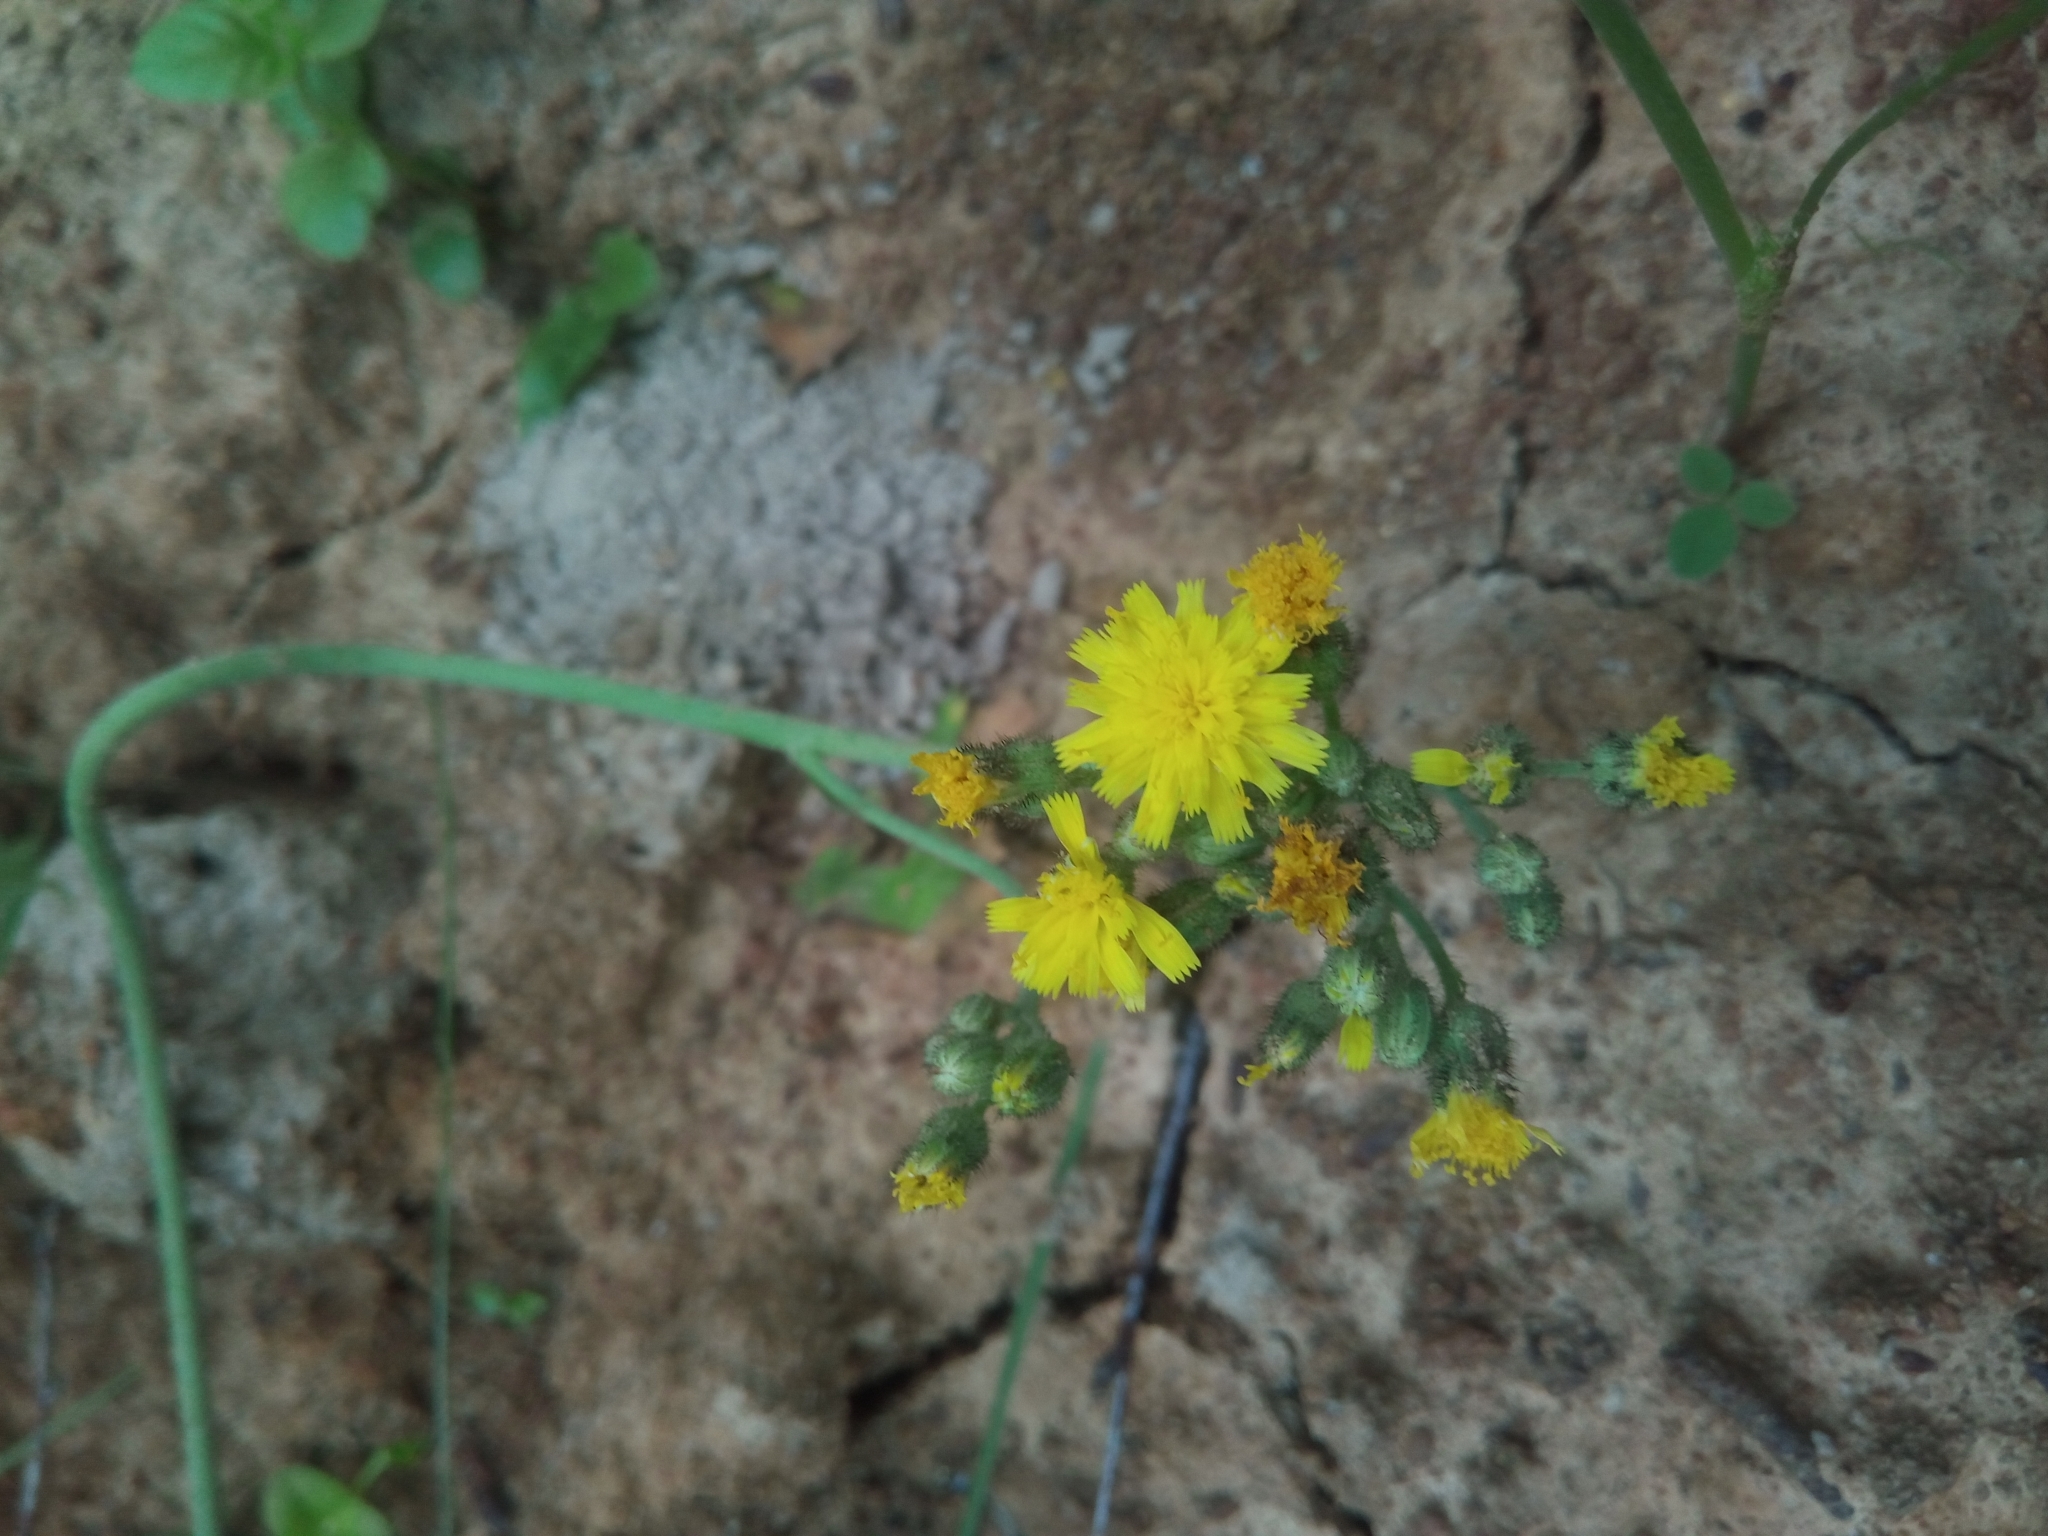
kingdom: Plantae
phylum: Tracheophyta
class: Magnoliopsida
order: Asterales
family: Asteraceae
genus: Pilosella
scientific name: Pilosella
